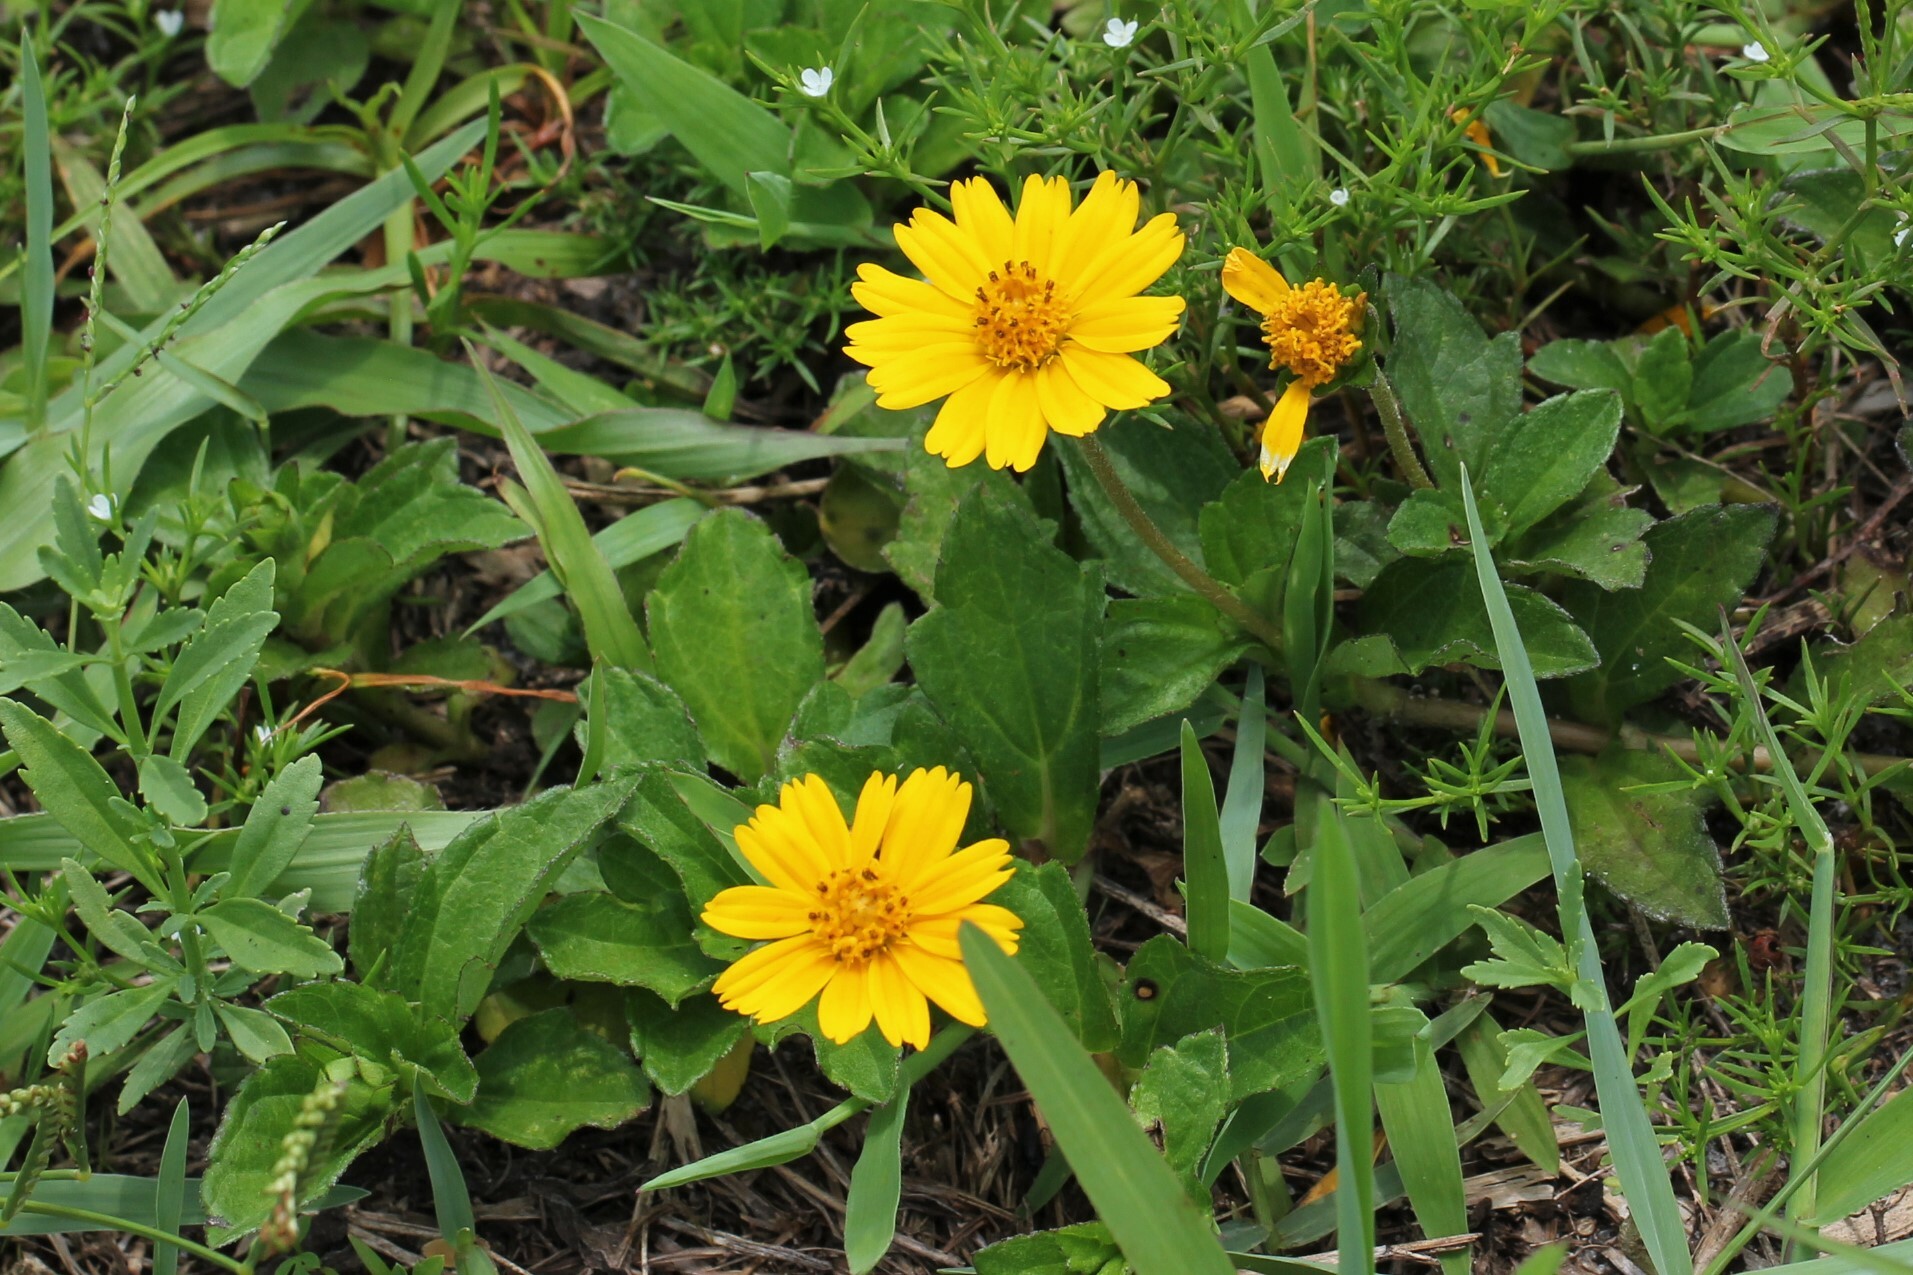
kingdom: Plantae
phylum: Tracheophyta
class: Magnoliopsida
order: Asterales
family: Asteraceae
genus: Sphagneticola
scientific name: Sphagneticola trilobata
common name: Bay biscayne creeping-oxeye
